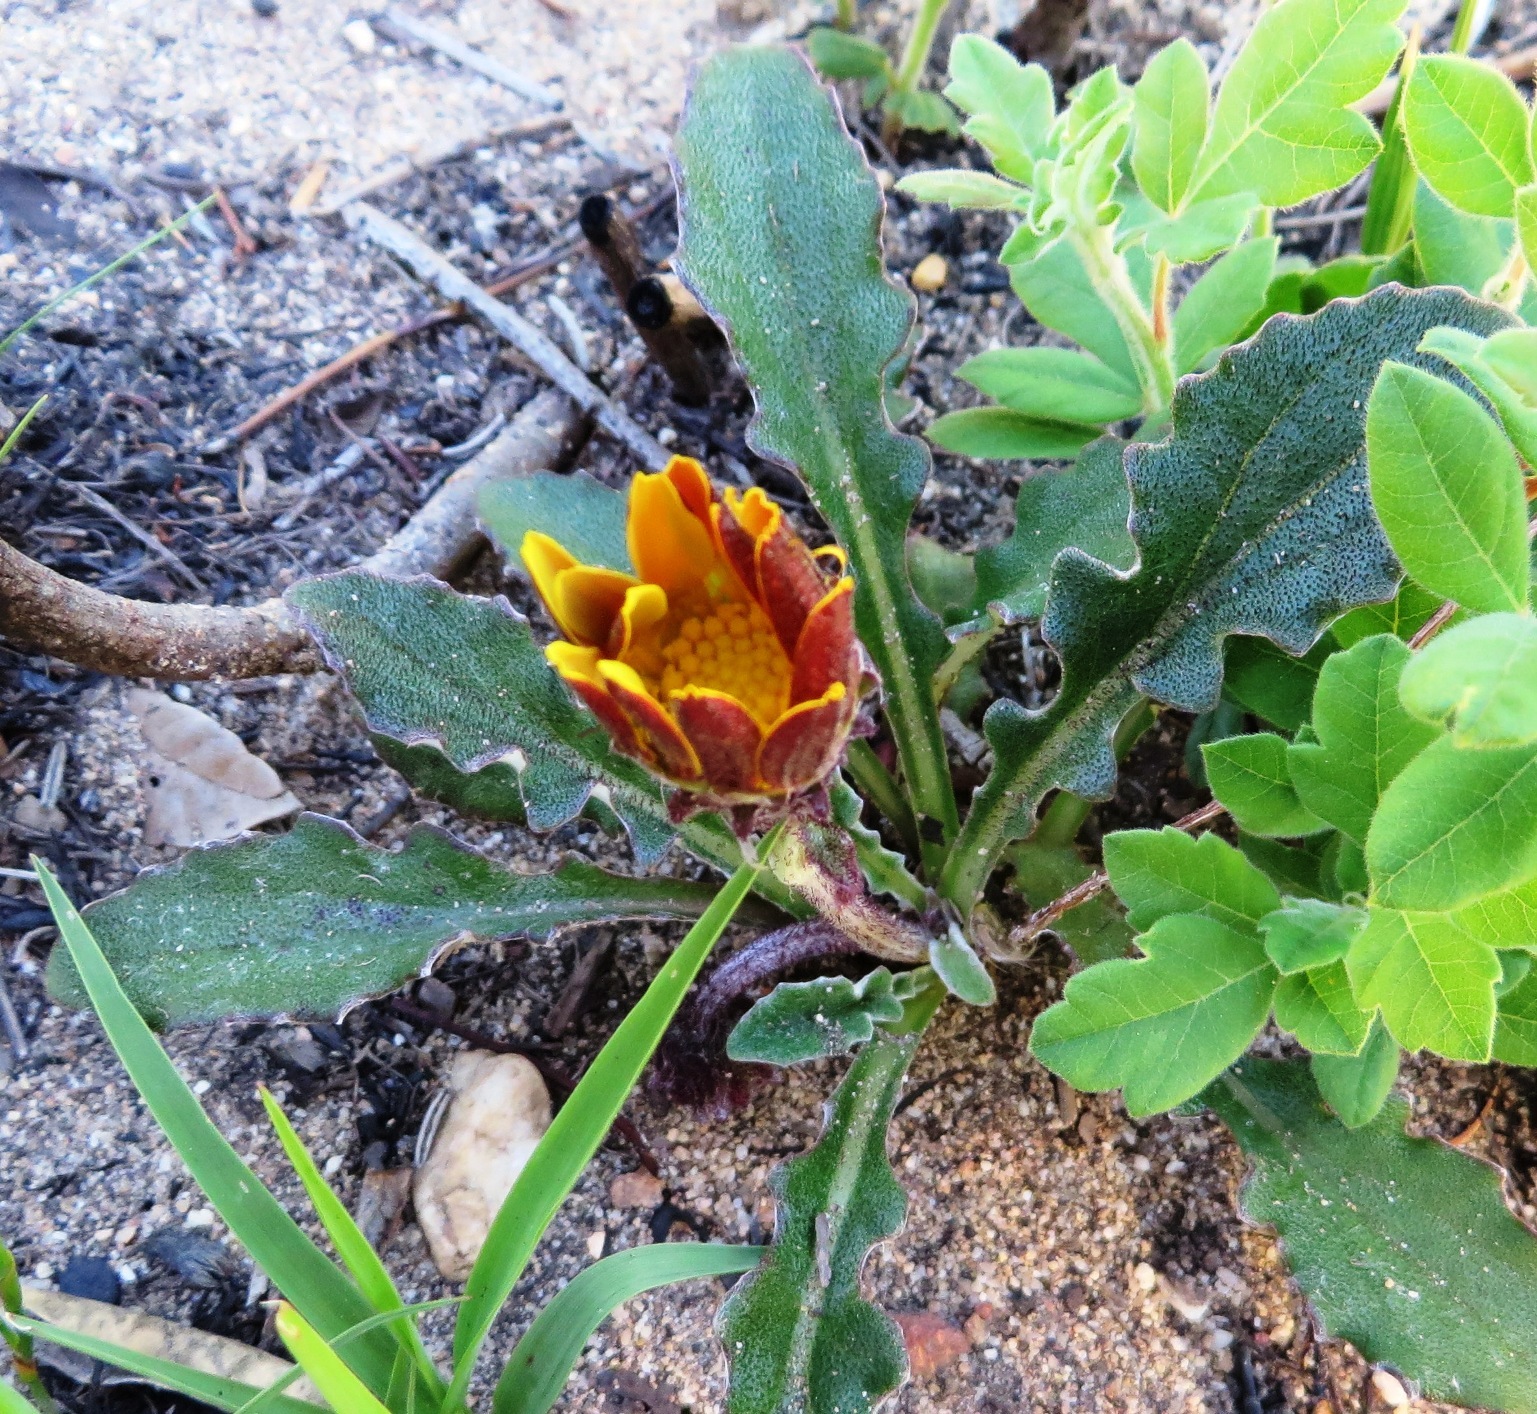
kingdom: Plantae
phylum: Tracheophyta
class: Magnoliopsida
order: Asterales
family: Asteraceae
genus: Haplocarpha
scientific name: Haplocarpha lanata
